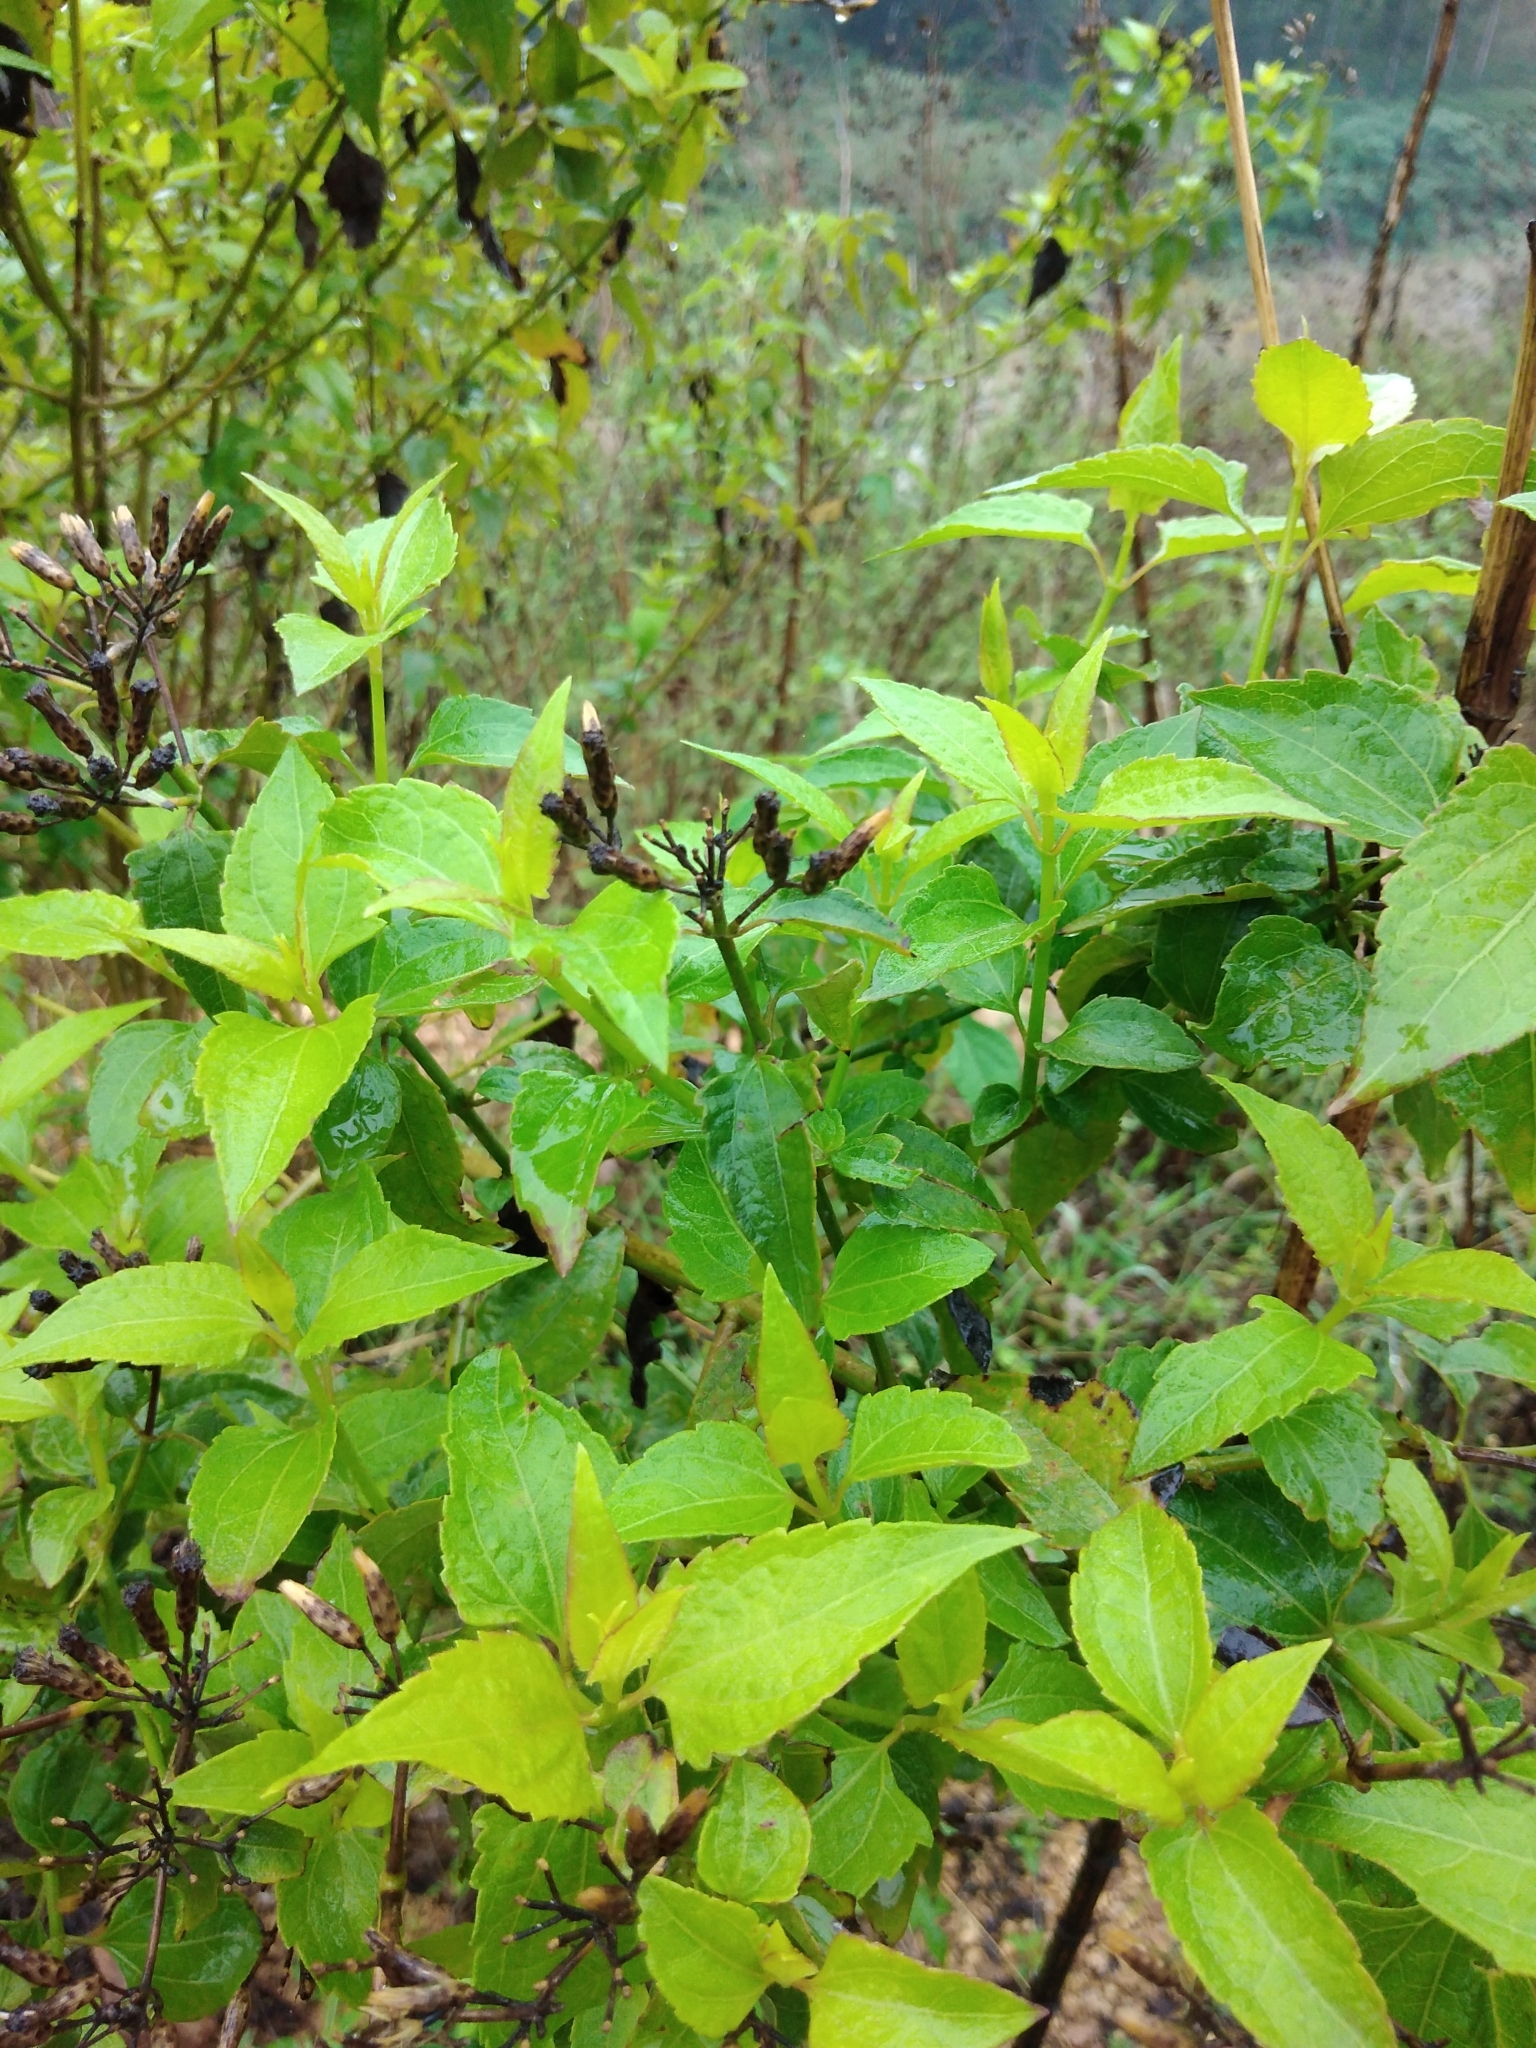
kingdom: Plantae
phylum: Tracheophyta
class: Magnoliopsida
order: Asterales
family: Asteraceae
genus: Chromolaena
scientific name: Chromolaena odorata
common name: Siamweed
